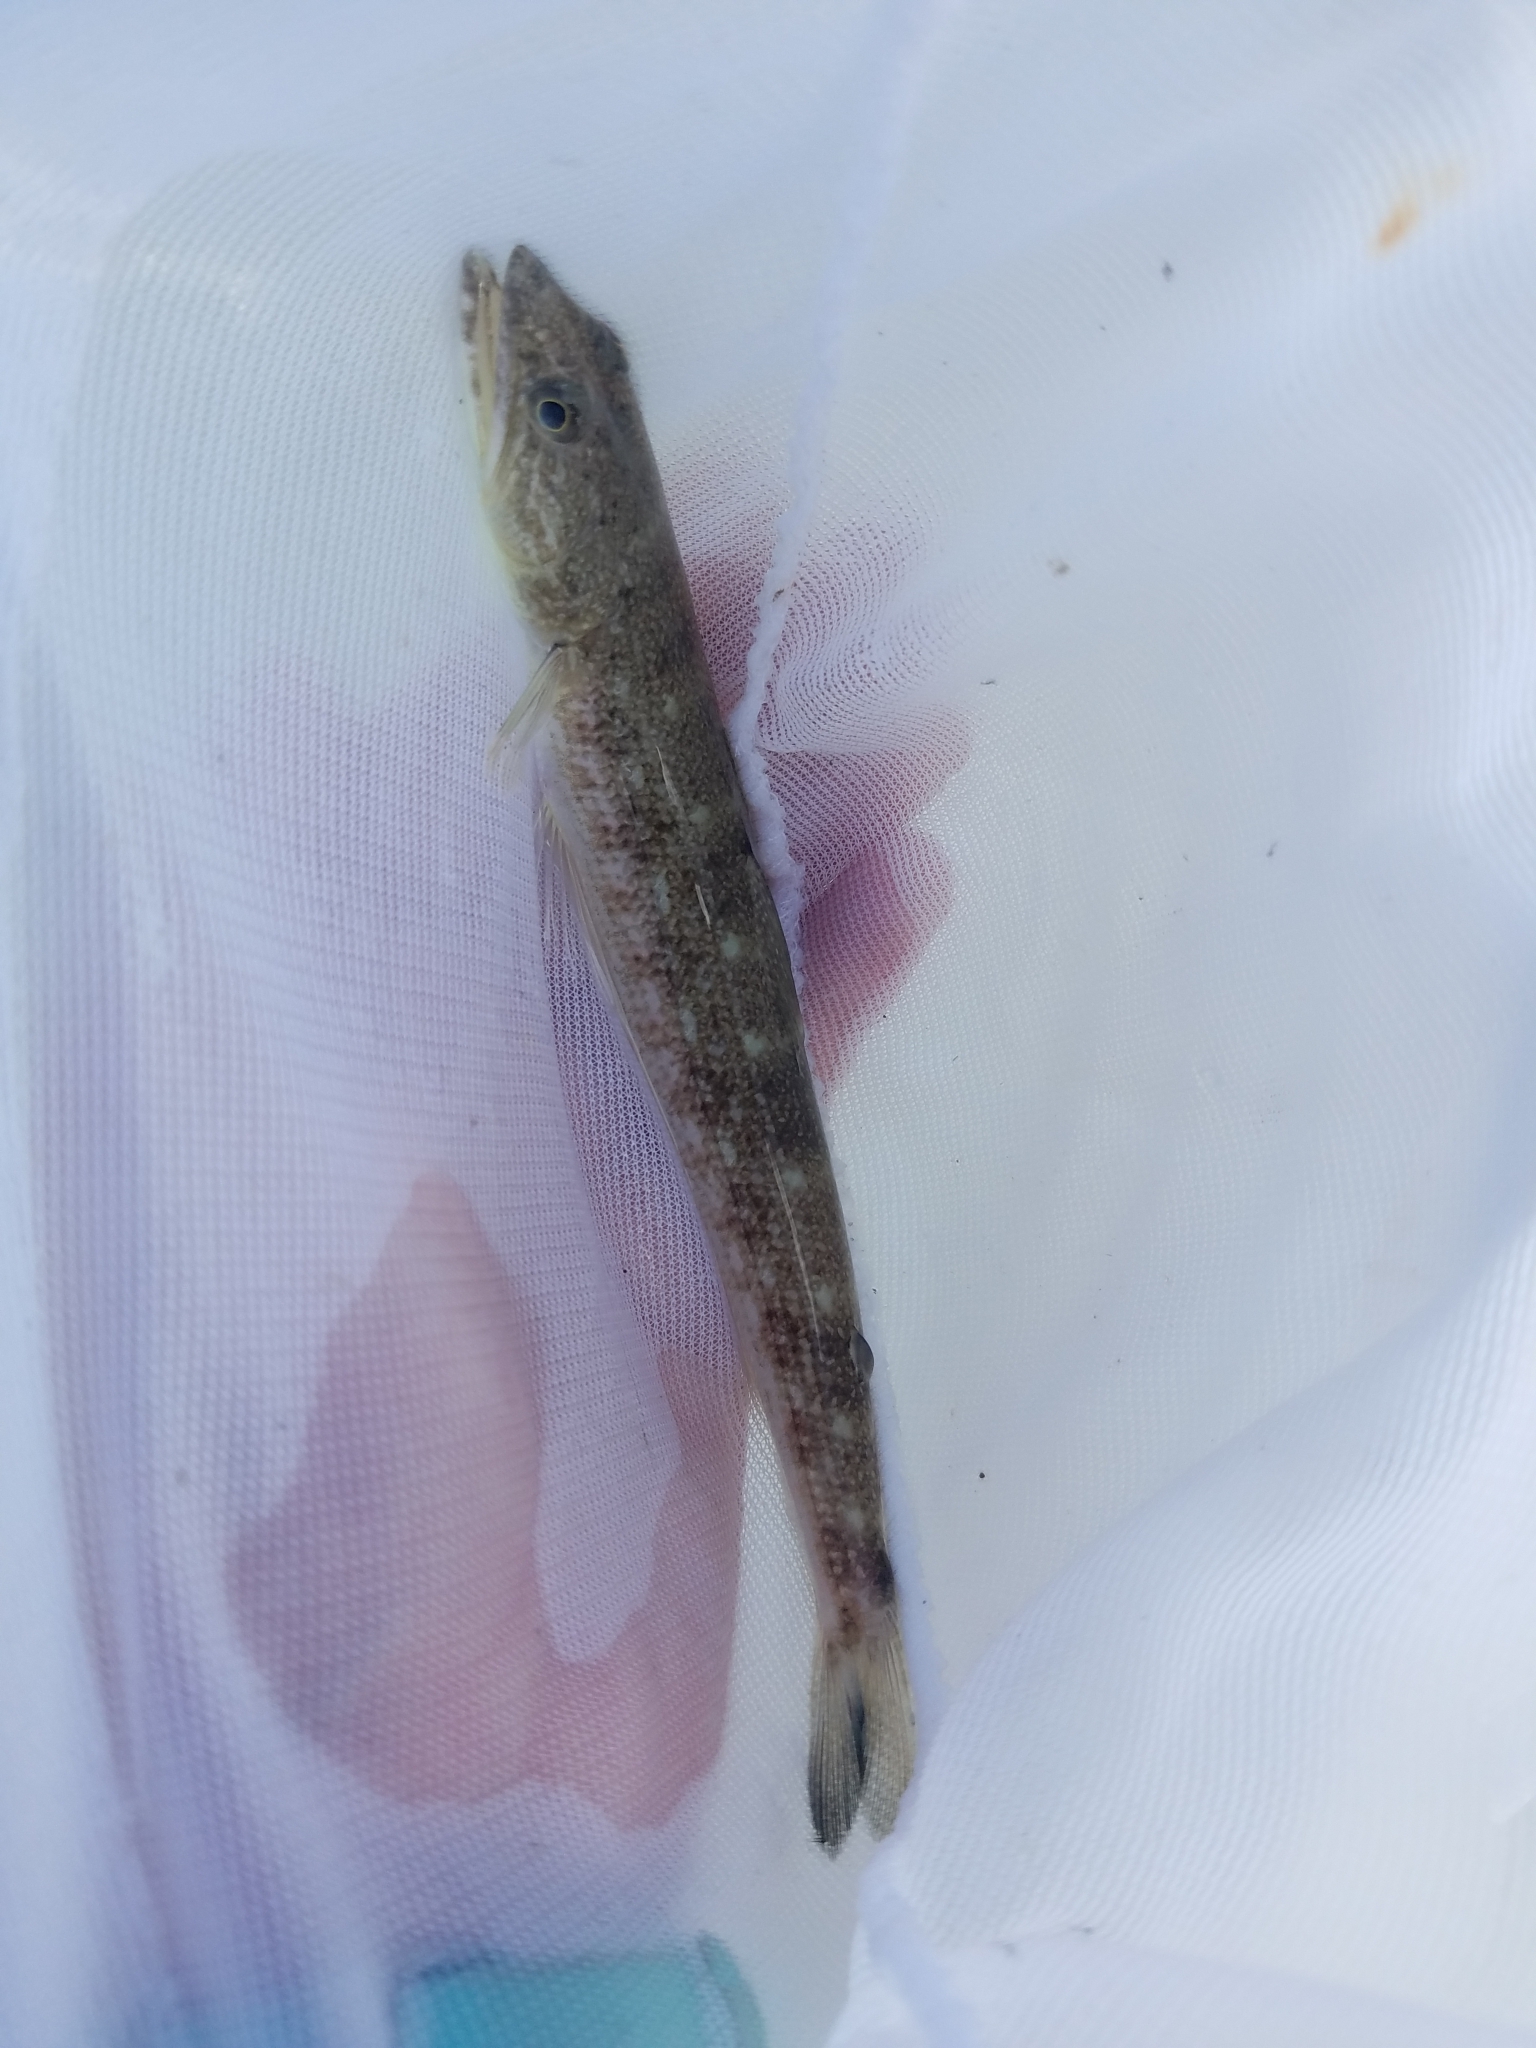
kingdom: Animalia
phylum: Chordata
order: Aulopiformes
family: Synodontidae
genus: Synodus
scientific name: Synodus foetens
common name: Inshore lizardfish
